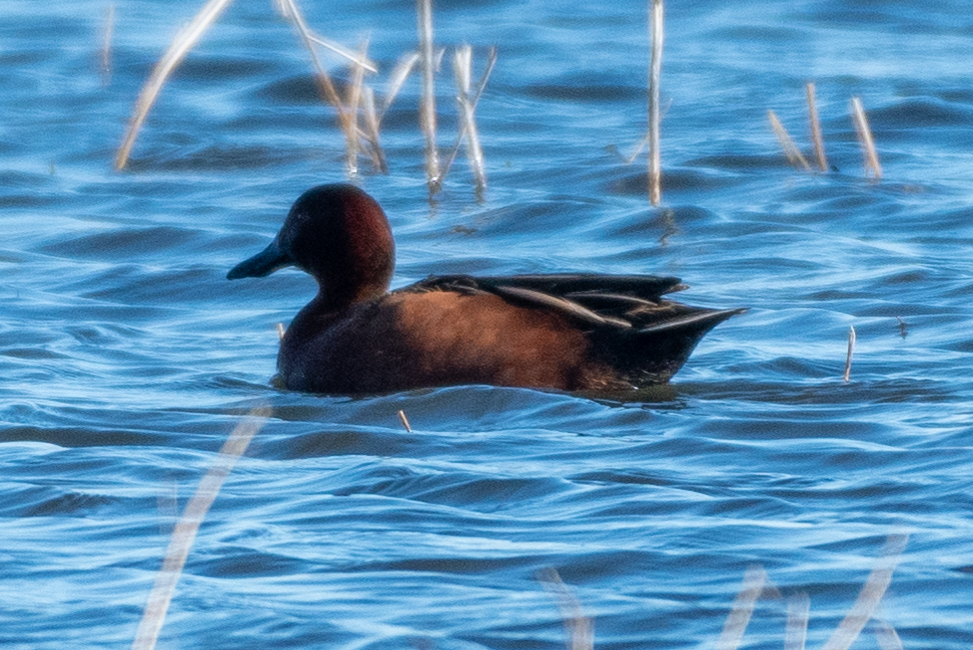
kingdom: Animalia
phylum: Chordata
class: Aves
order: Anseriformes
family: Anatidae
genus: Spatula
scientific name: Spatula cyanoptera
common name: Cinnamon teal
